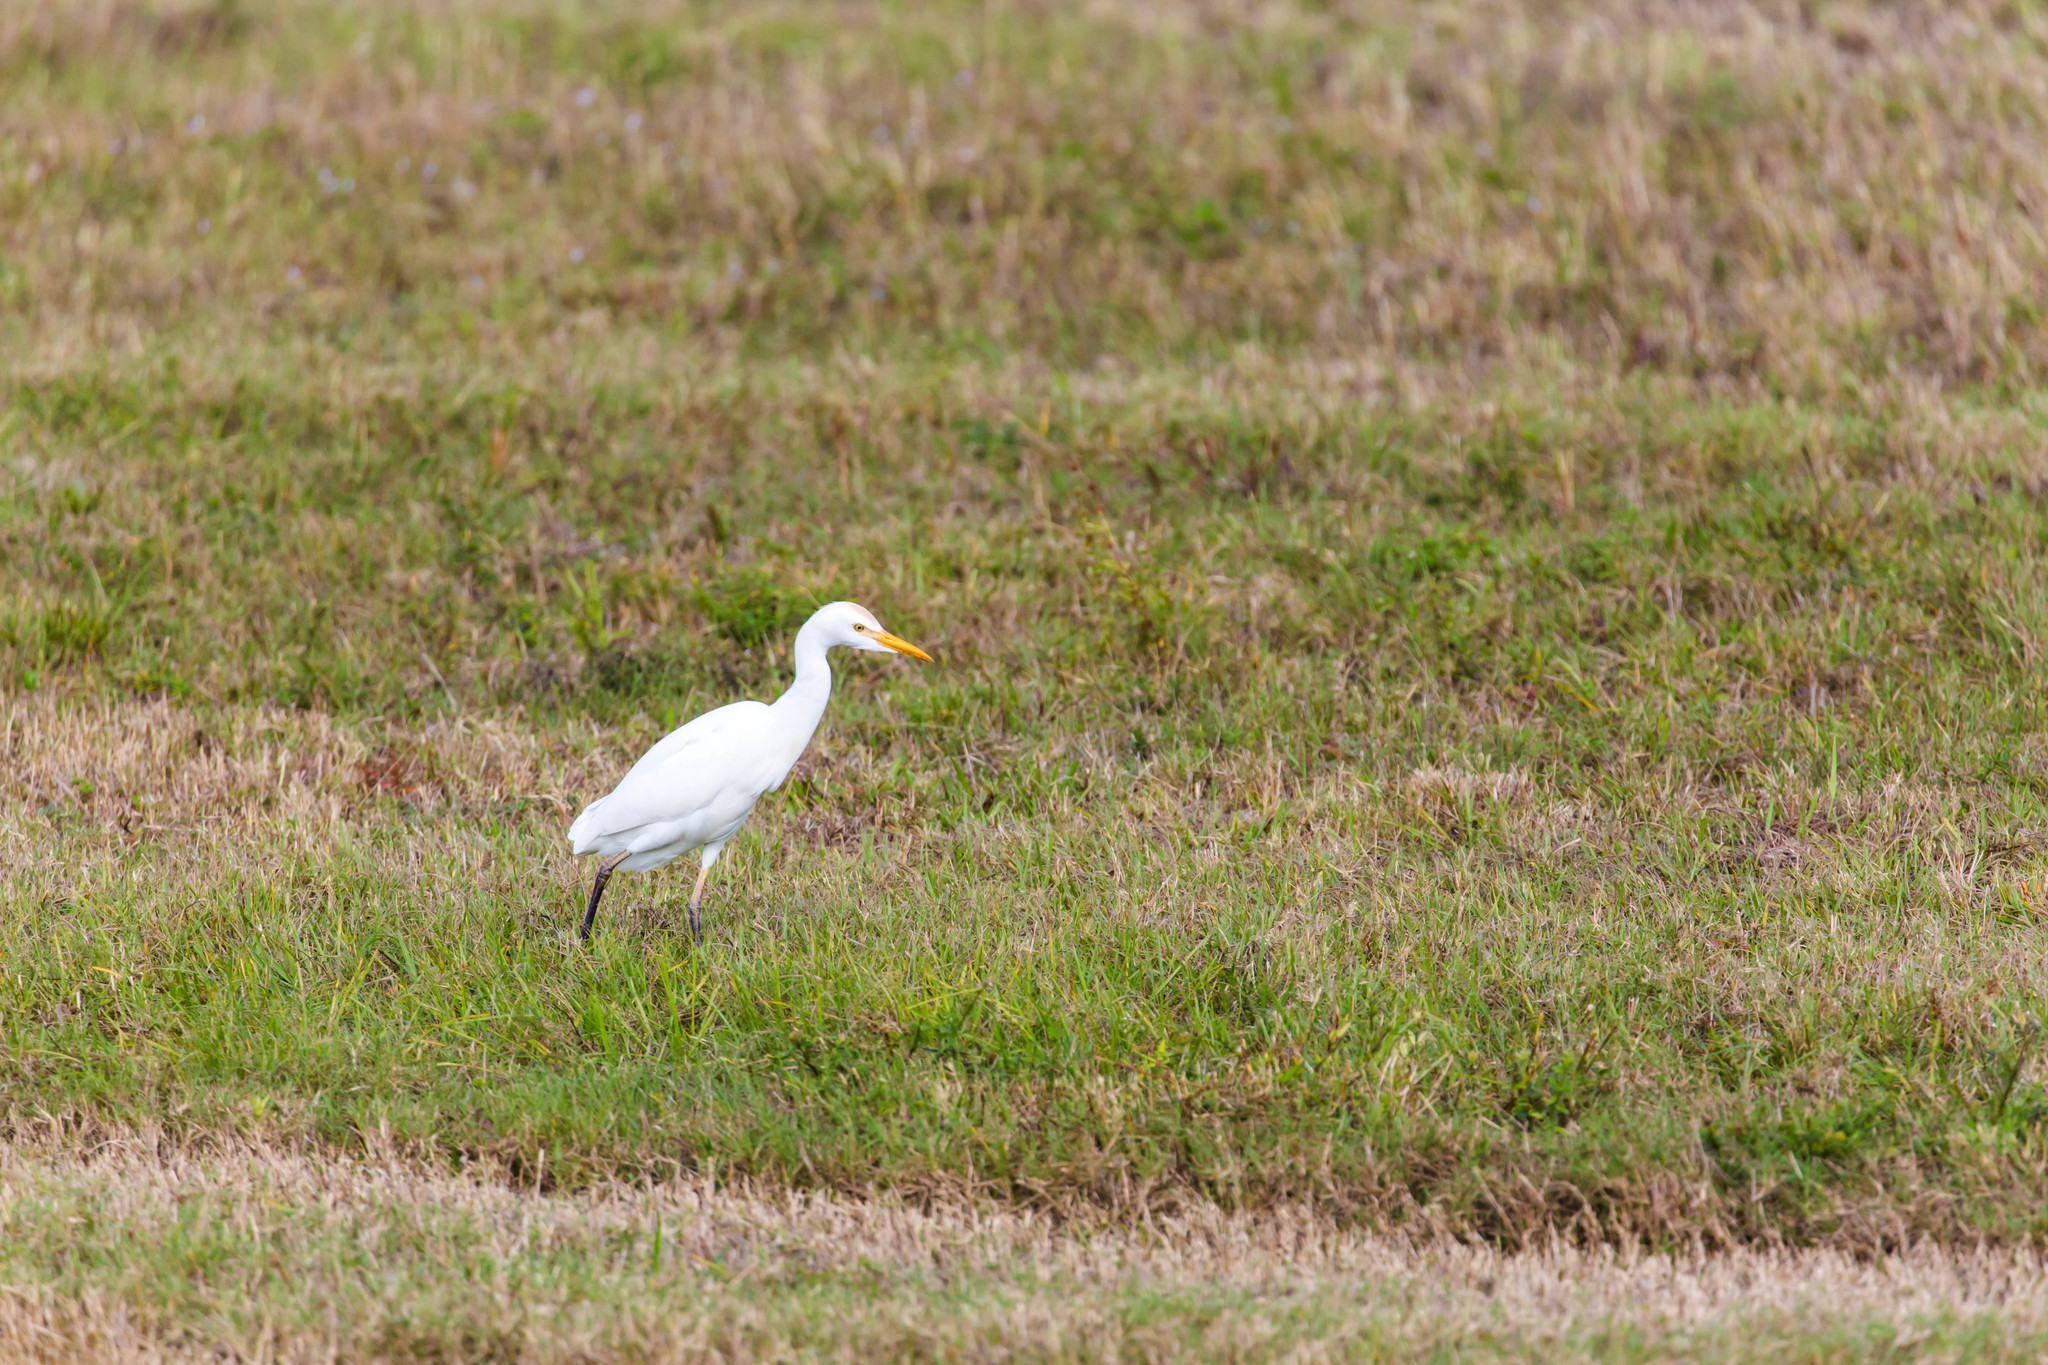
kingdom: Animalia
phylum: Chordata
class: Aves
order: Pelecaniformes
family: Ardeidae
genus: Bubulcus
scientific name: Bubulcus ibis
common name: Cattle egret
